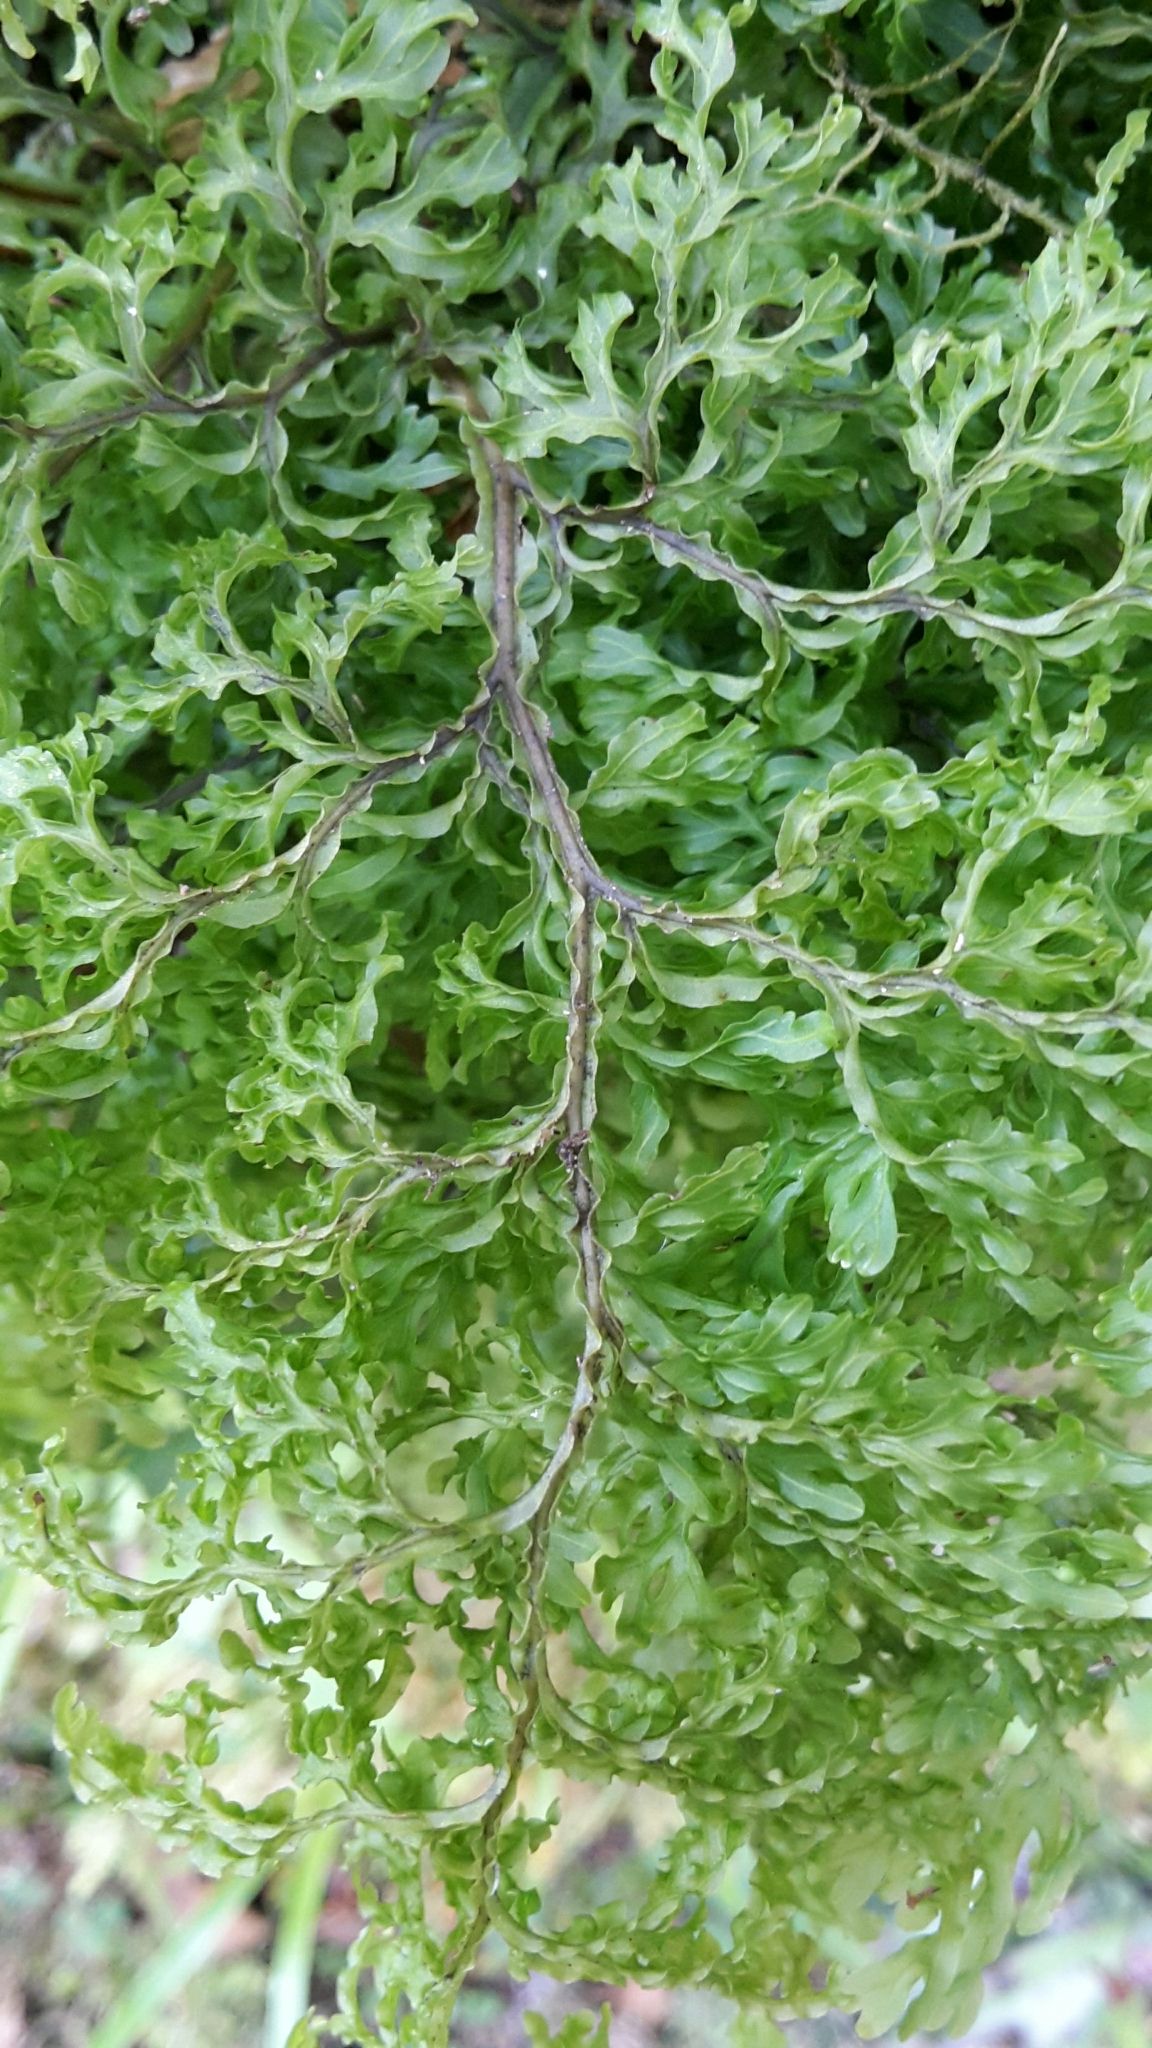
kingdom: Plantae
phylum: Tracheophyta
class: Polypodiopsida
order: Hymenophyllales
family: Hymenophyllaceae
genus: Hymenophyllum
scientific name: Hymenophyllum pulcherrimum
